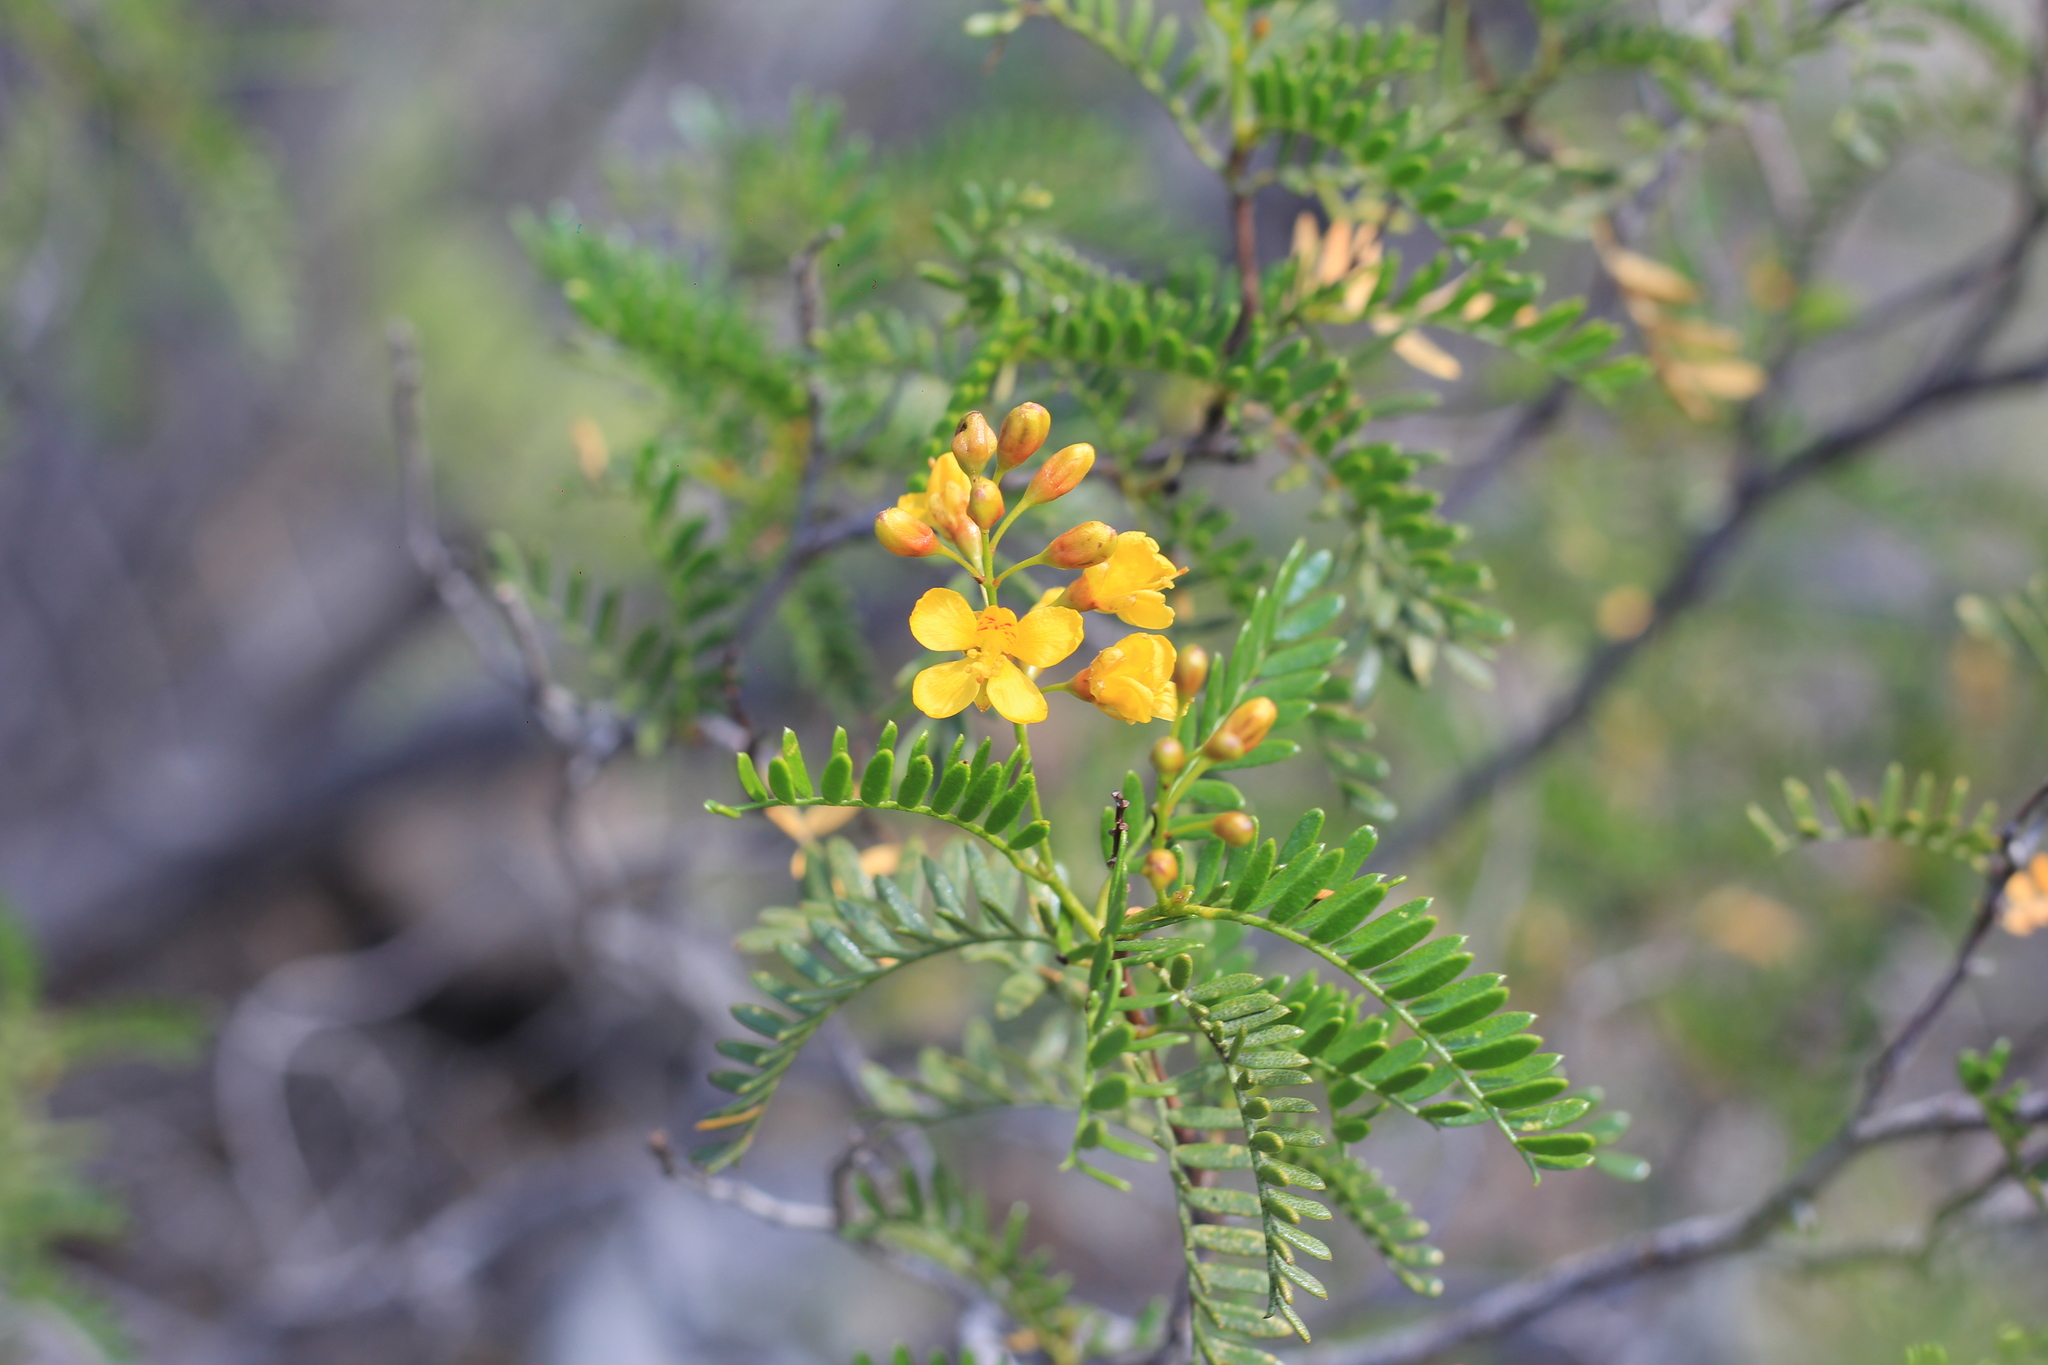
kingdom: Plantae
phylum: Tracheophyta
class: Magnoliopsida
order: Fabales
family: Fabaceae
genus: Zuccagnia
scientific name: Zuccagnia punctata
